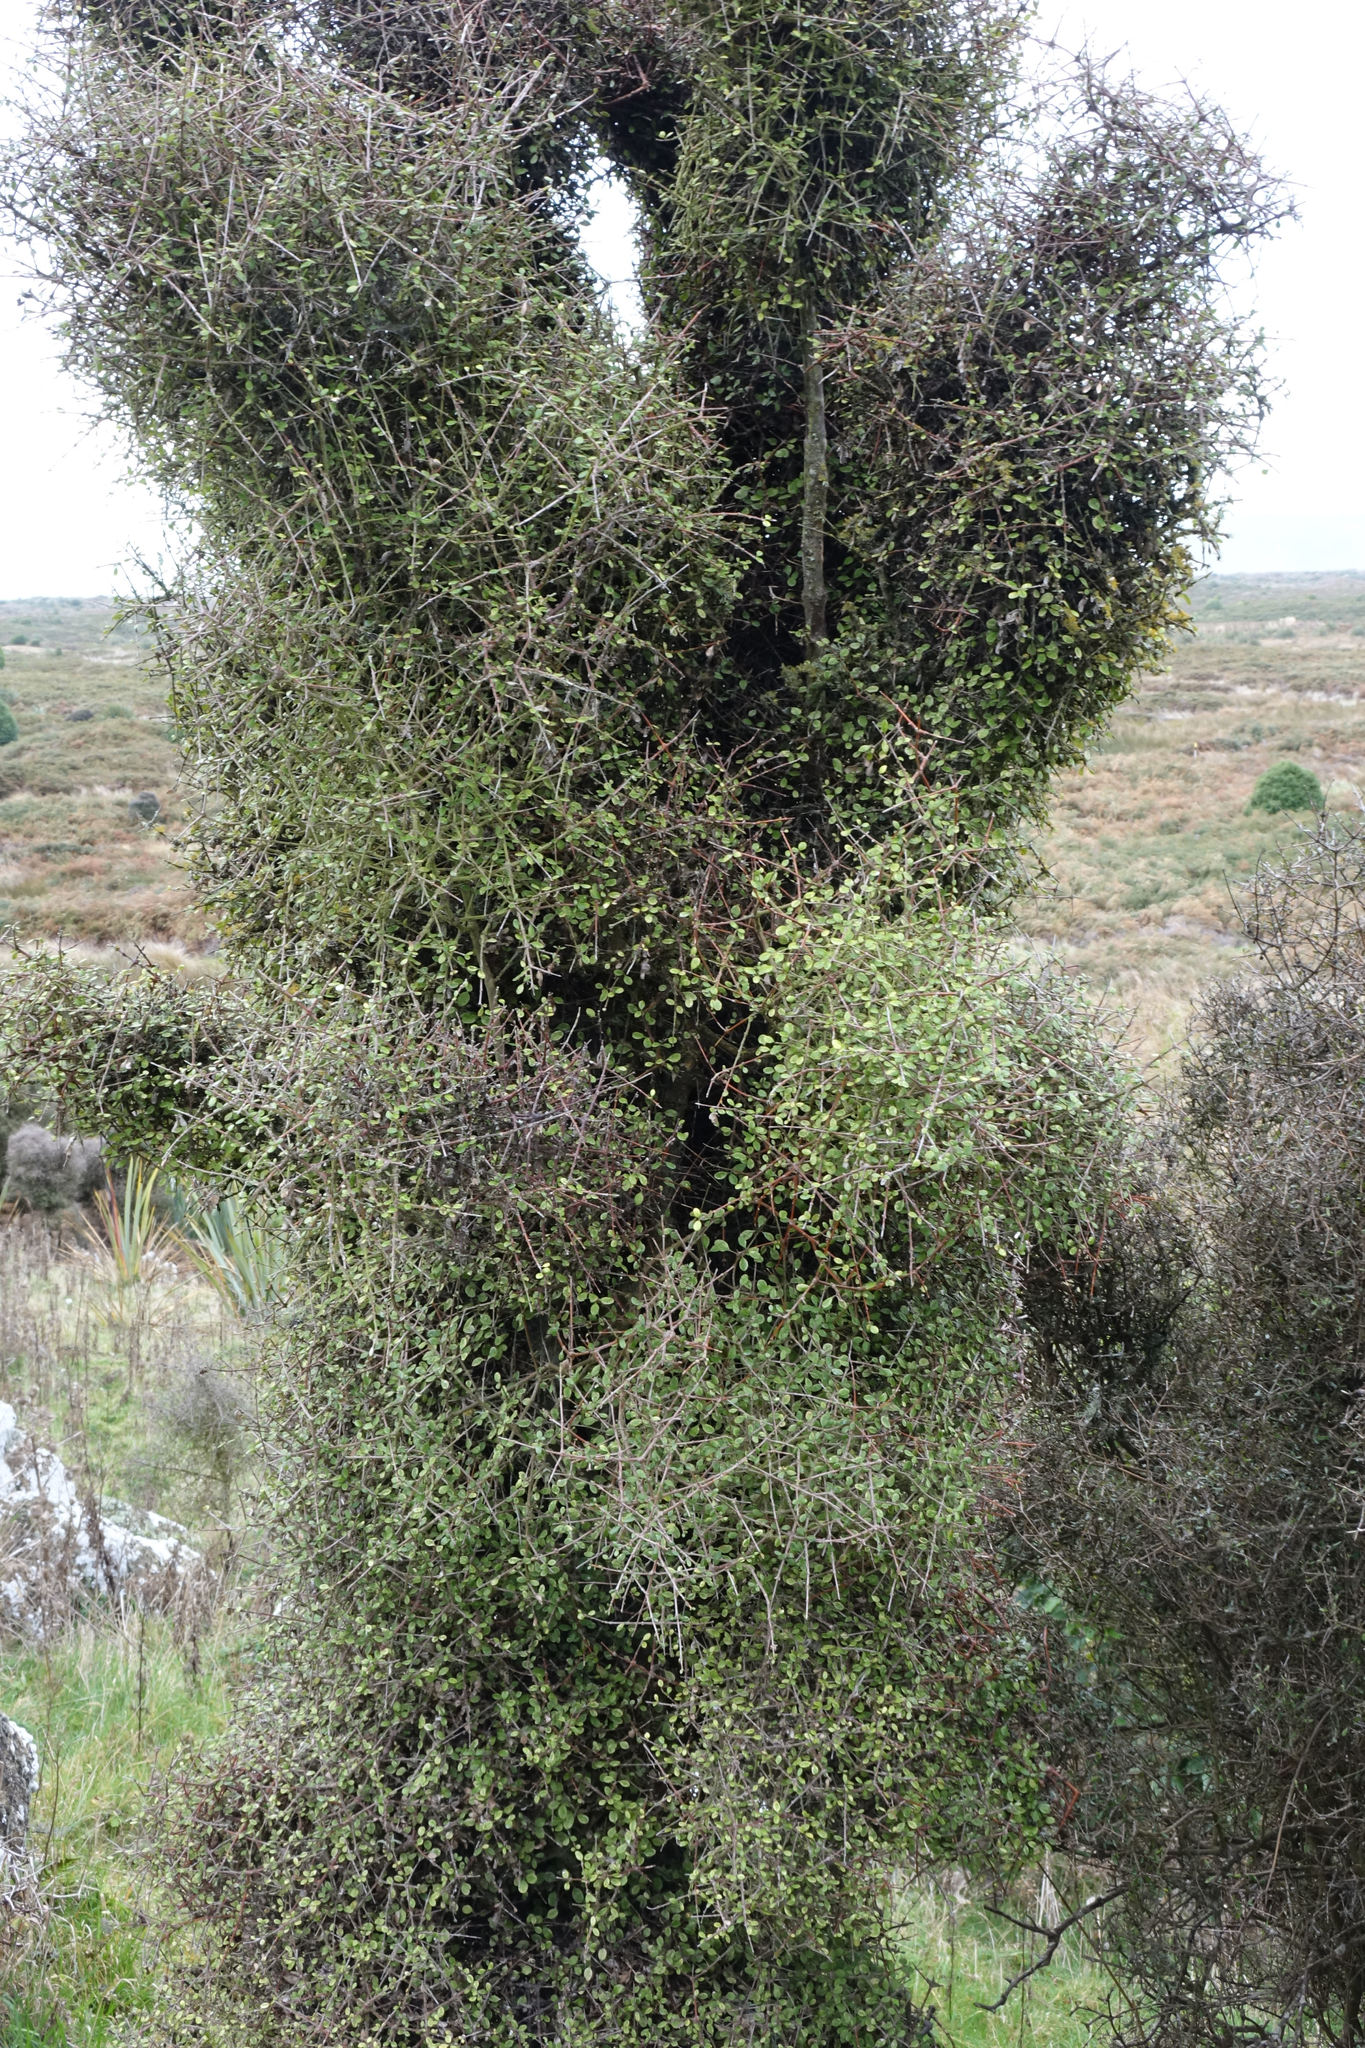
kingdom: Plantae
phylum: Tracheophyta
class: Magnoliopsida
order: Gentianales
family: Rubiaceae
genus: Coprosma
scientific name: Coprosma crassifolia
